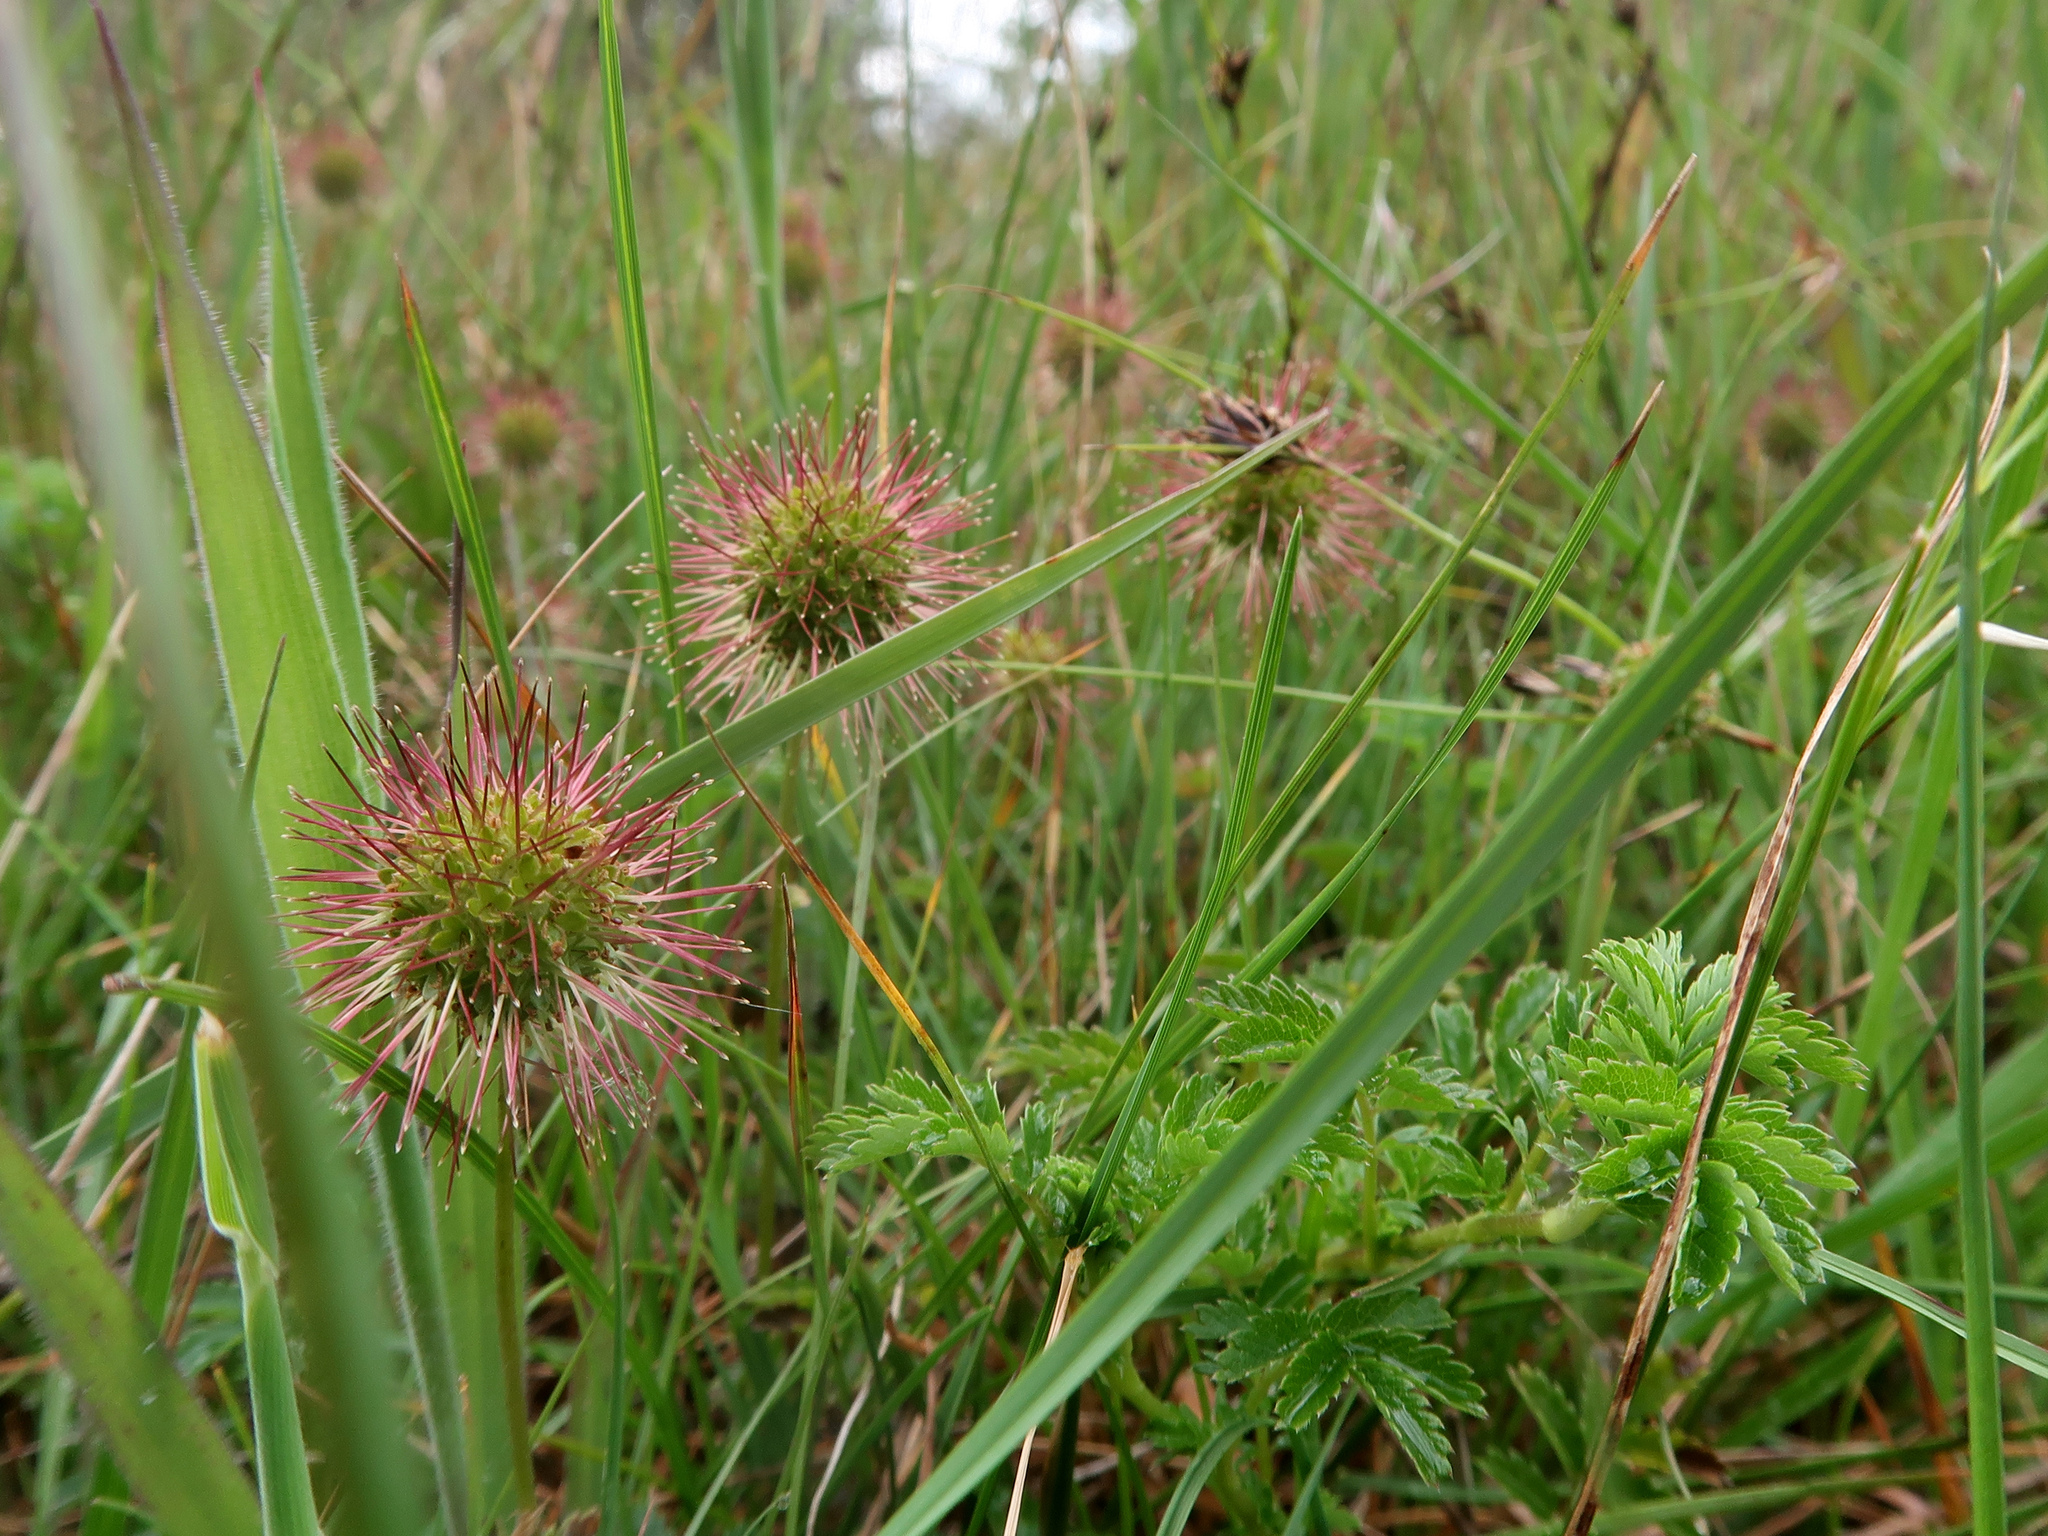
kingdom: Plantae
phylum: Tracheophyta
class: Magnoliopsida
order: Rosales
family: Rosaceae
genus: Acaena
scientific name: Acaena novae-zelandiae
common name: Pirri-pirri-bur
